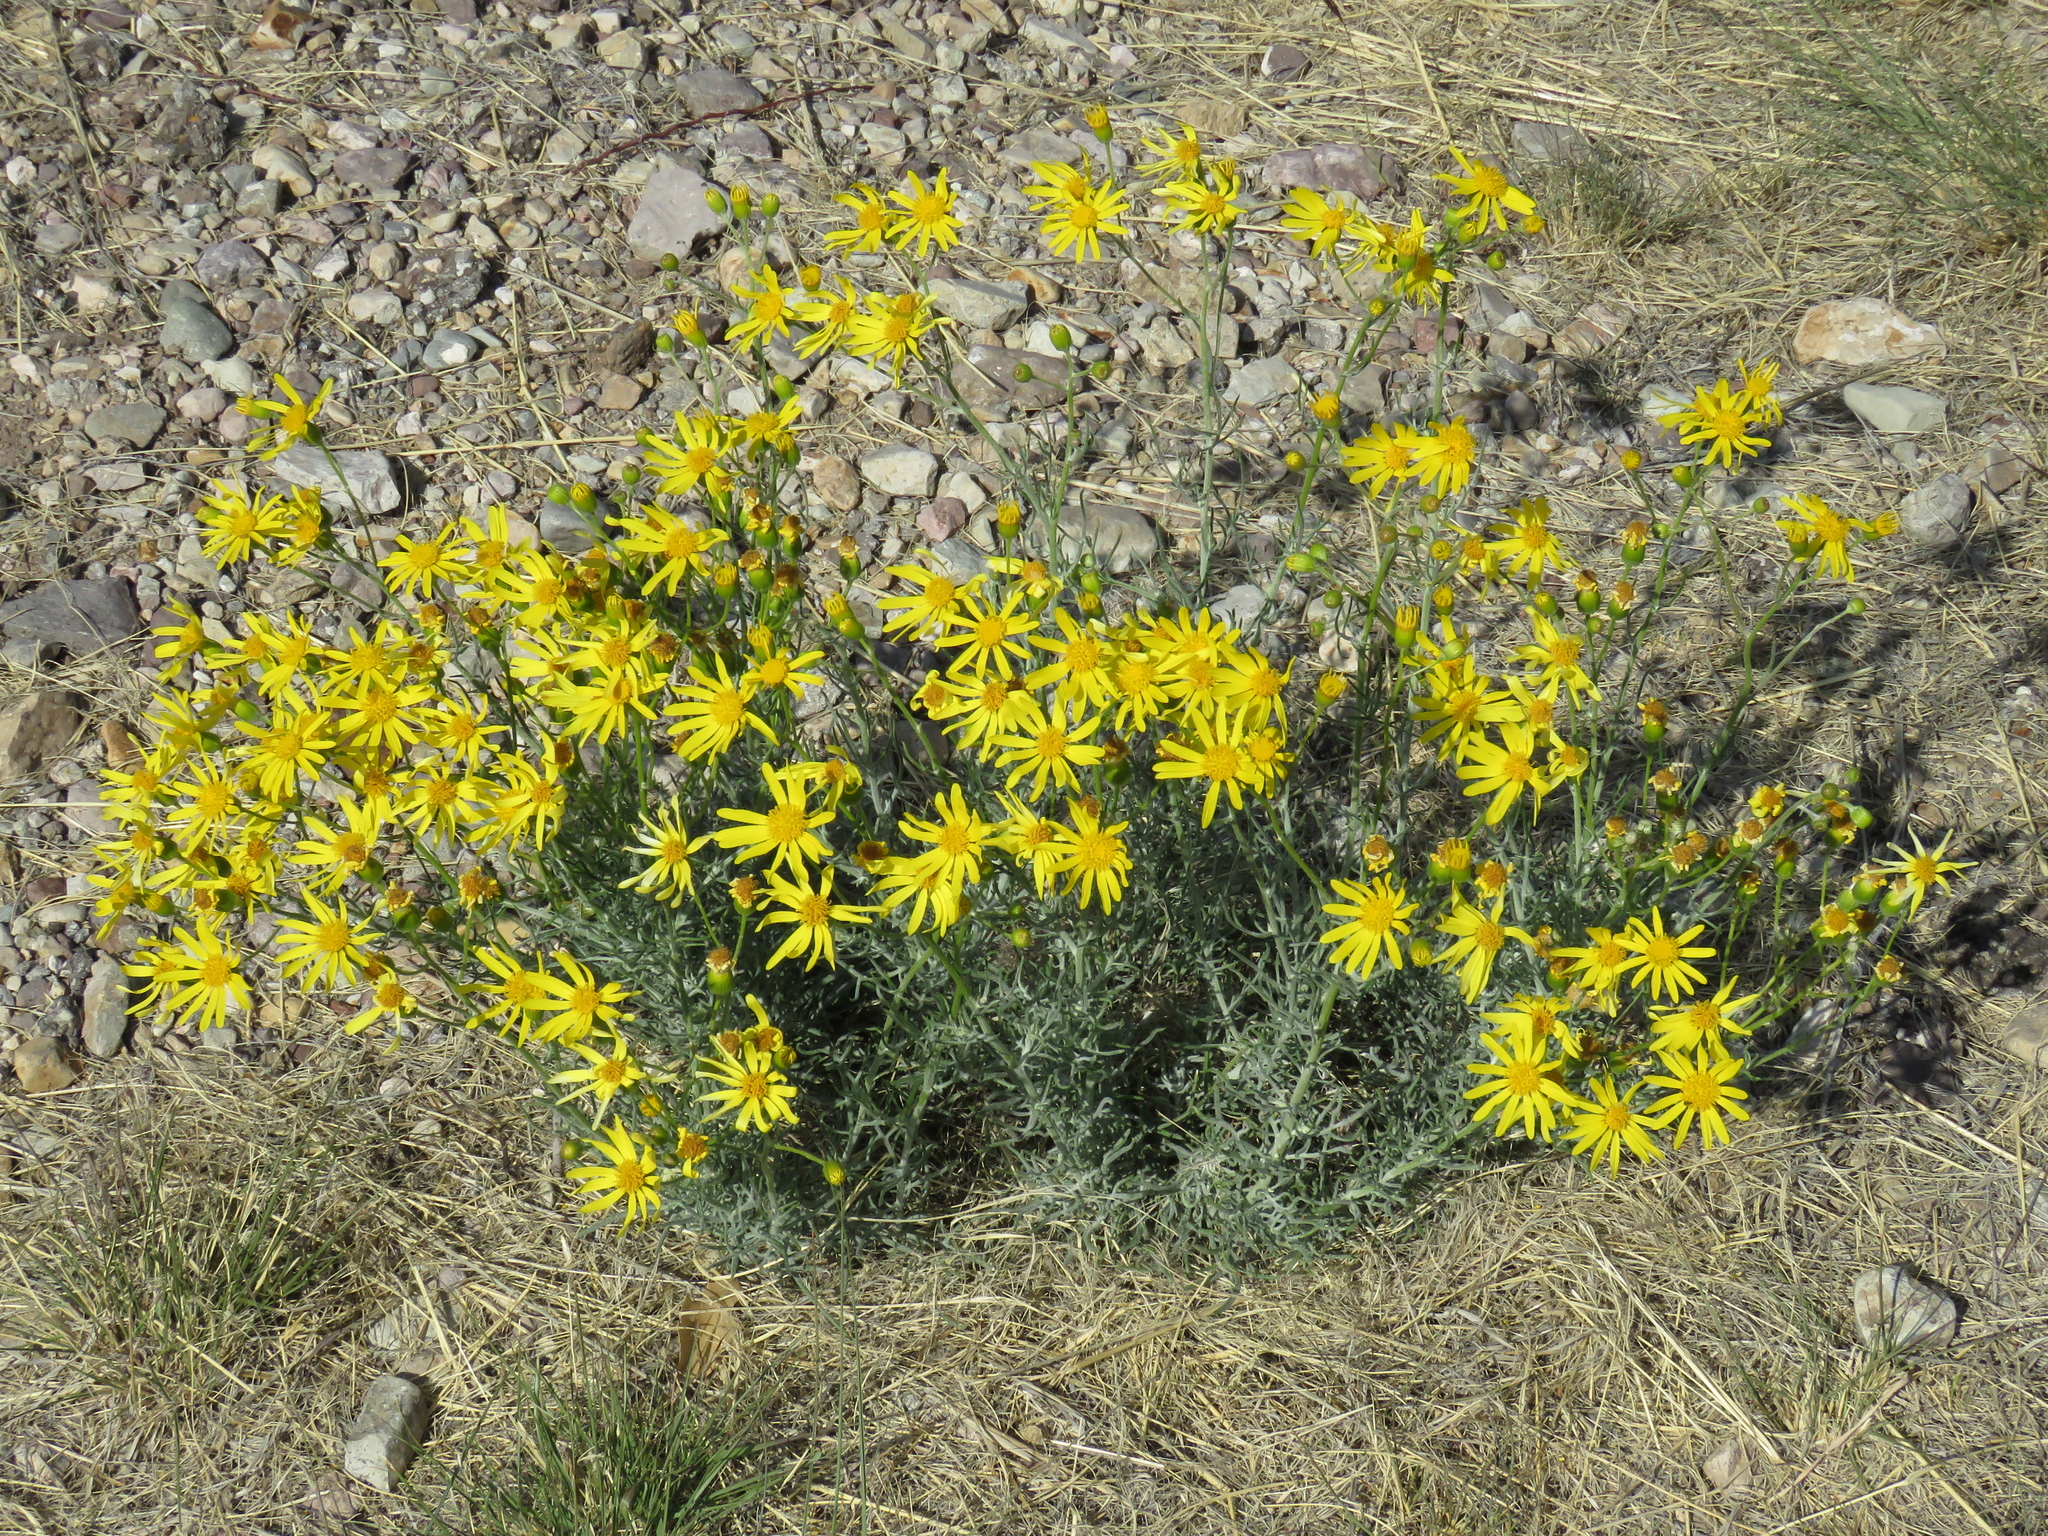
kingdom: Plantae
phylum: Tracheophyta
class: Magnoliopsida
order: Asterales
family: Asteraceae
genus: Senecio
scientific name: Senecio flaccidus
